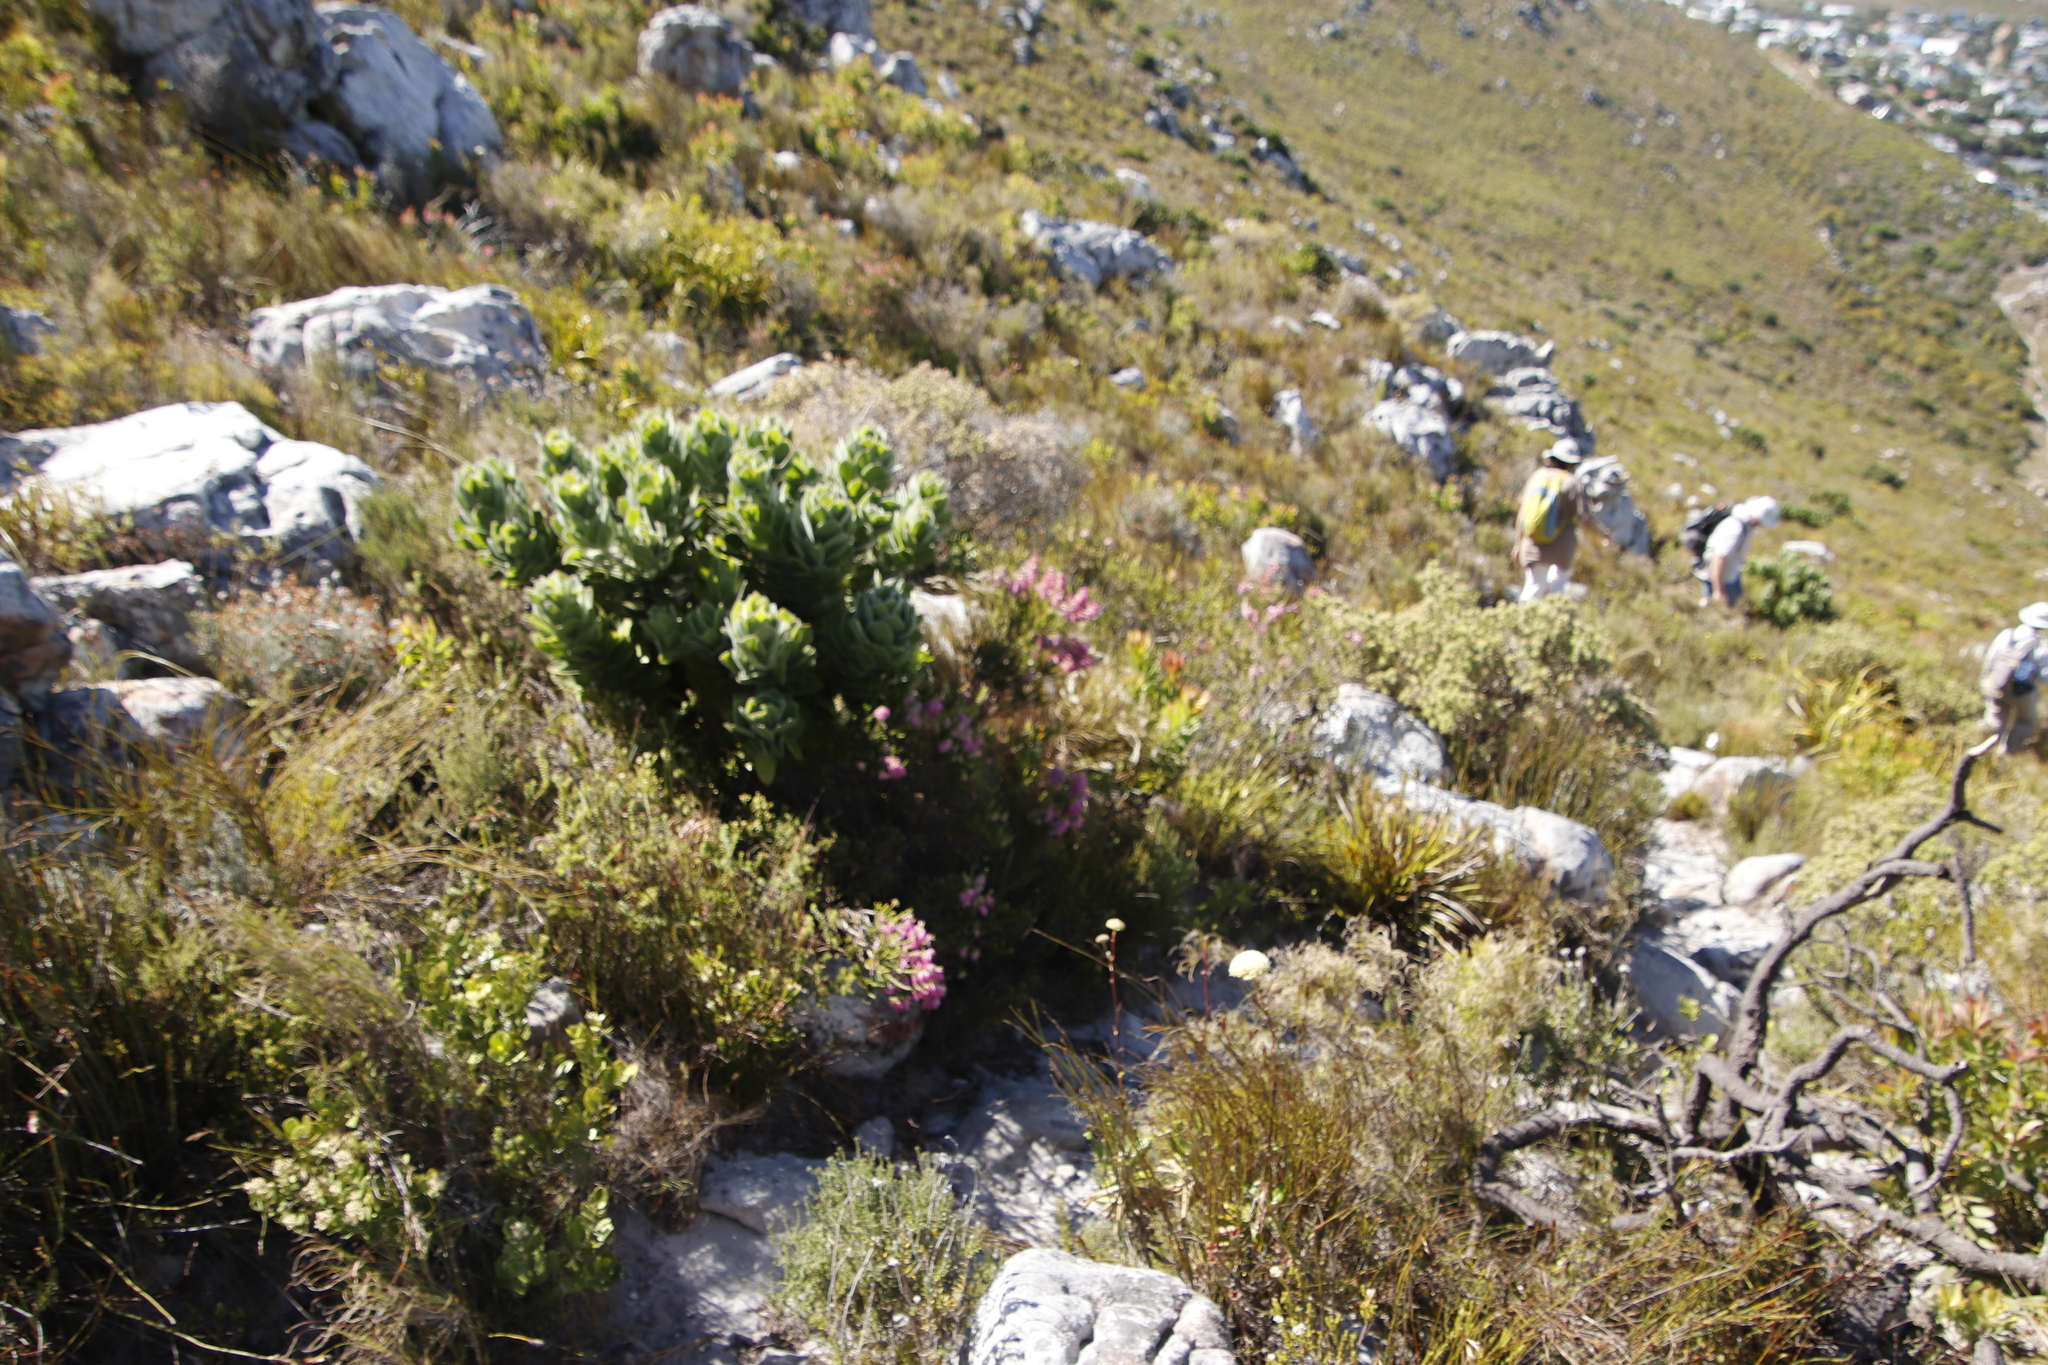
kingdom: Plantae
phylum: Tracheophyta
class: Magnoliopsida
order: Proteales
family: Proteaceae
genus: Leucospermum
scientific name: Leucospermum conocarpodendron
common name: Tree pincushion
